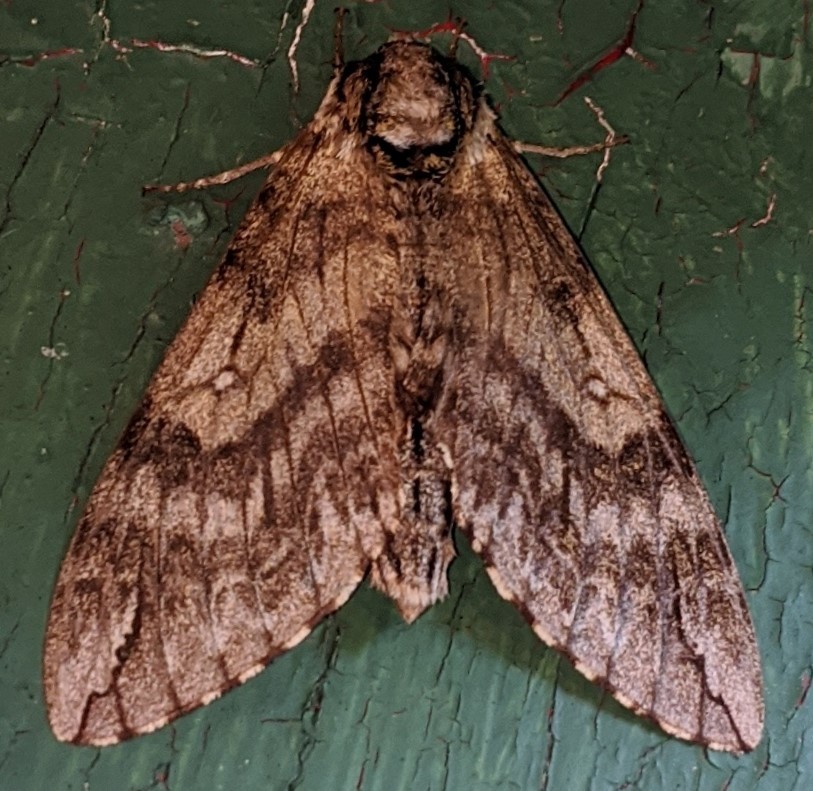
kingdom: Animalia
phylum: Arthropoda
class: Insecta
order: Lepidoptera
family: Sphingidae
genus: Ceratomia
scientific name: Ceratomia undulosa
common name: Waved sphinx
